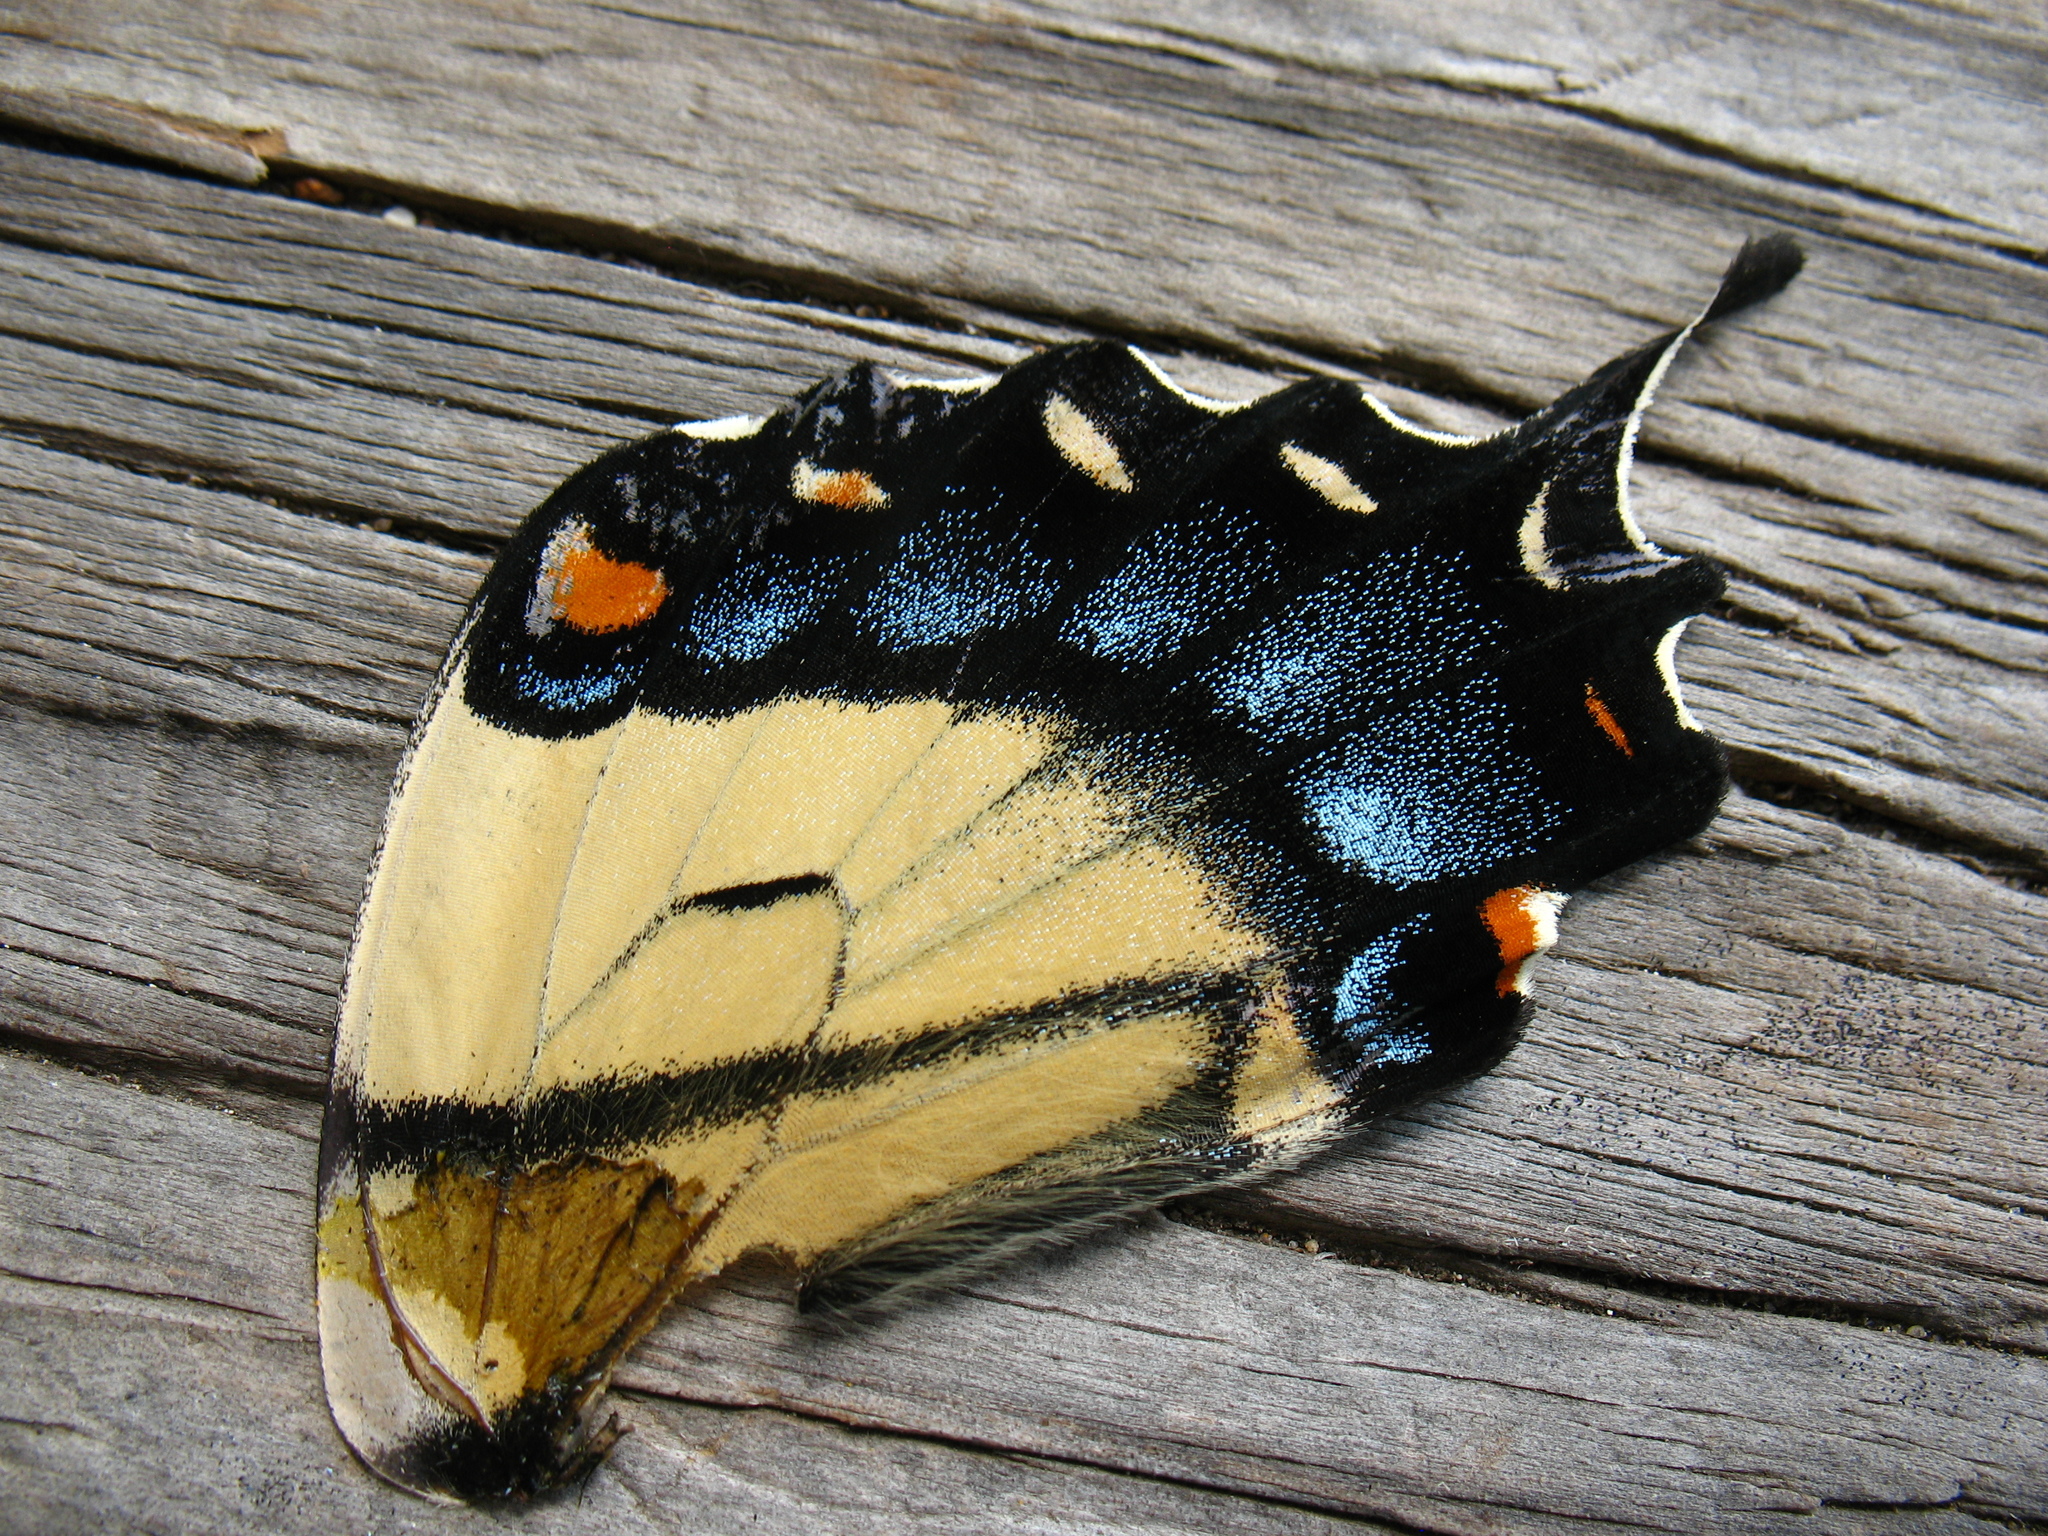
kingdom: Animalia
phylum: Arthropoda
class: Insecta
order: Lepidoptera
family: Papilionidae
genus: Papilio
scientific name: Papilio glaucus
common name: Tiger swallowtail
